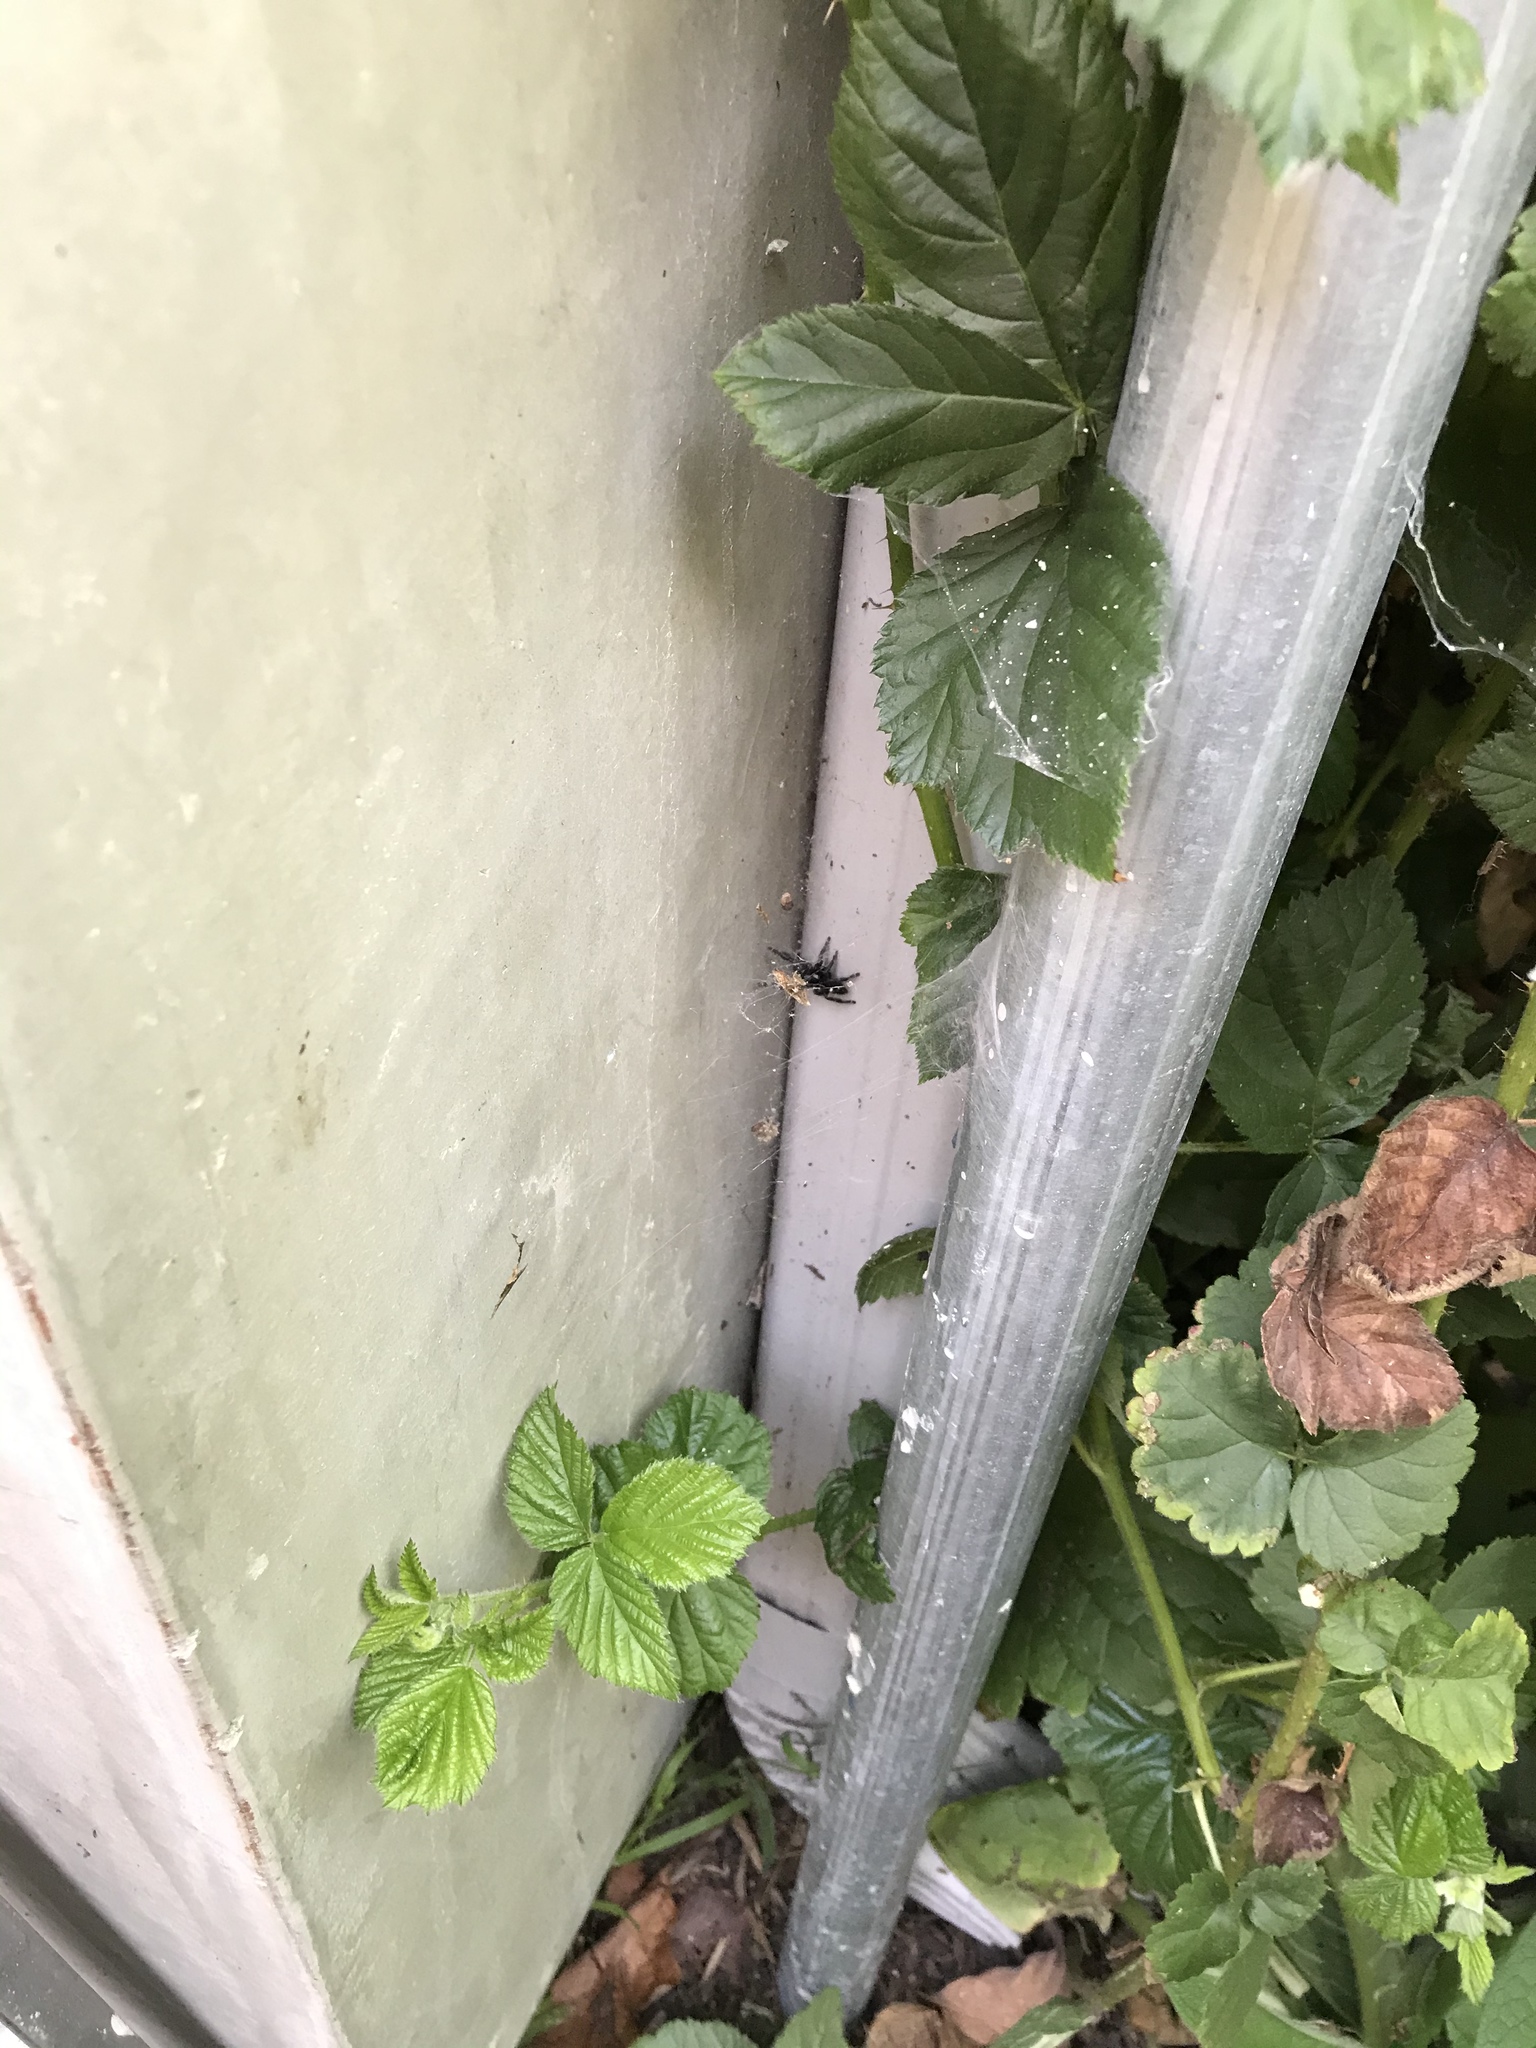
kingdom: Animalia
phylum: Arthropoda
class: Arachnida
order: Araneae
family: Salticidae
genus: Phidippus
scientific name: Phidippus audax
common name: Bold jumper
